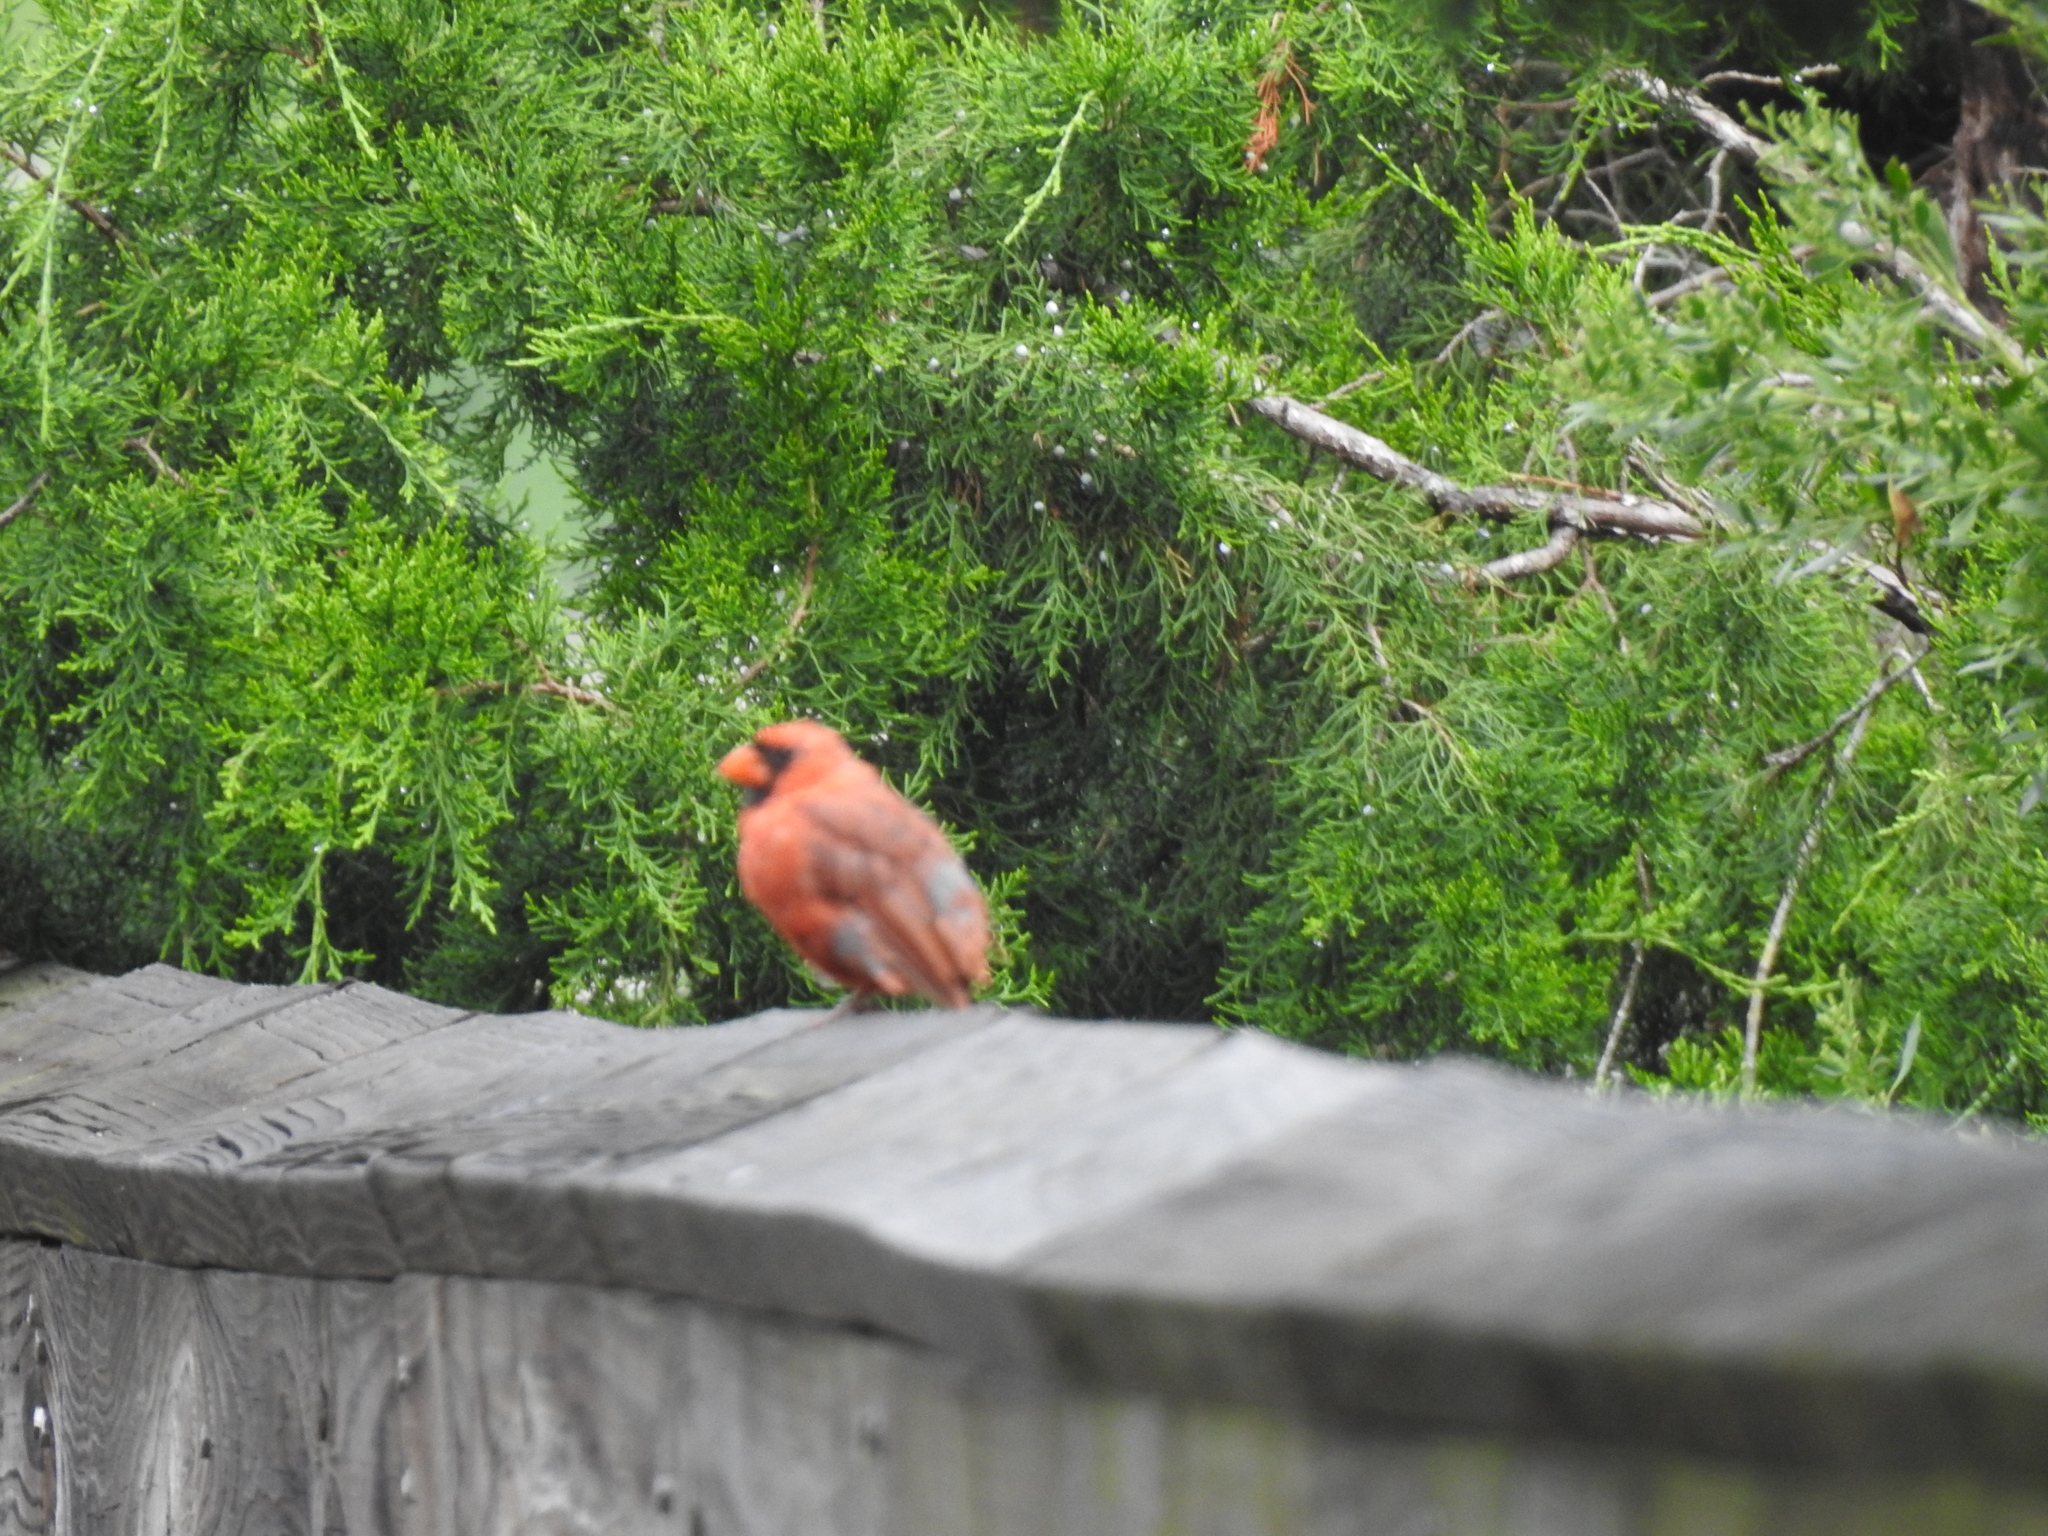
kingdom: Animalia
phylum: Chordata
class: Aves
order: Passeriformes
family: Cardinalidae
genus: Cardinalis
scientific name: Cardinalis cardinalis
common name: Northern cardinal
